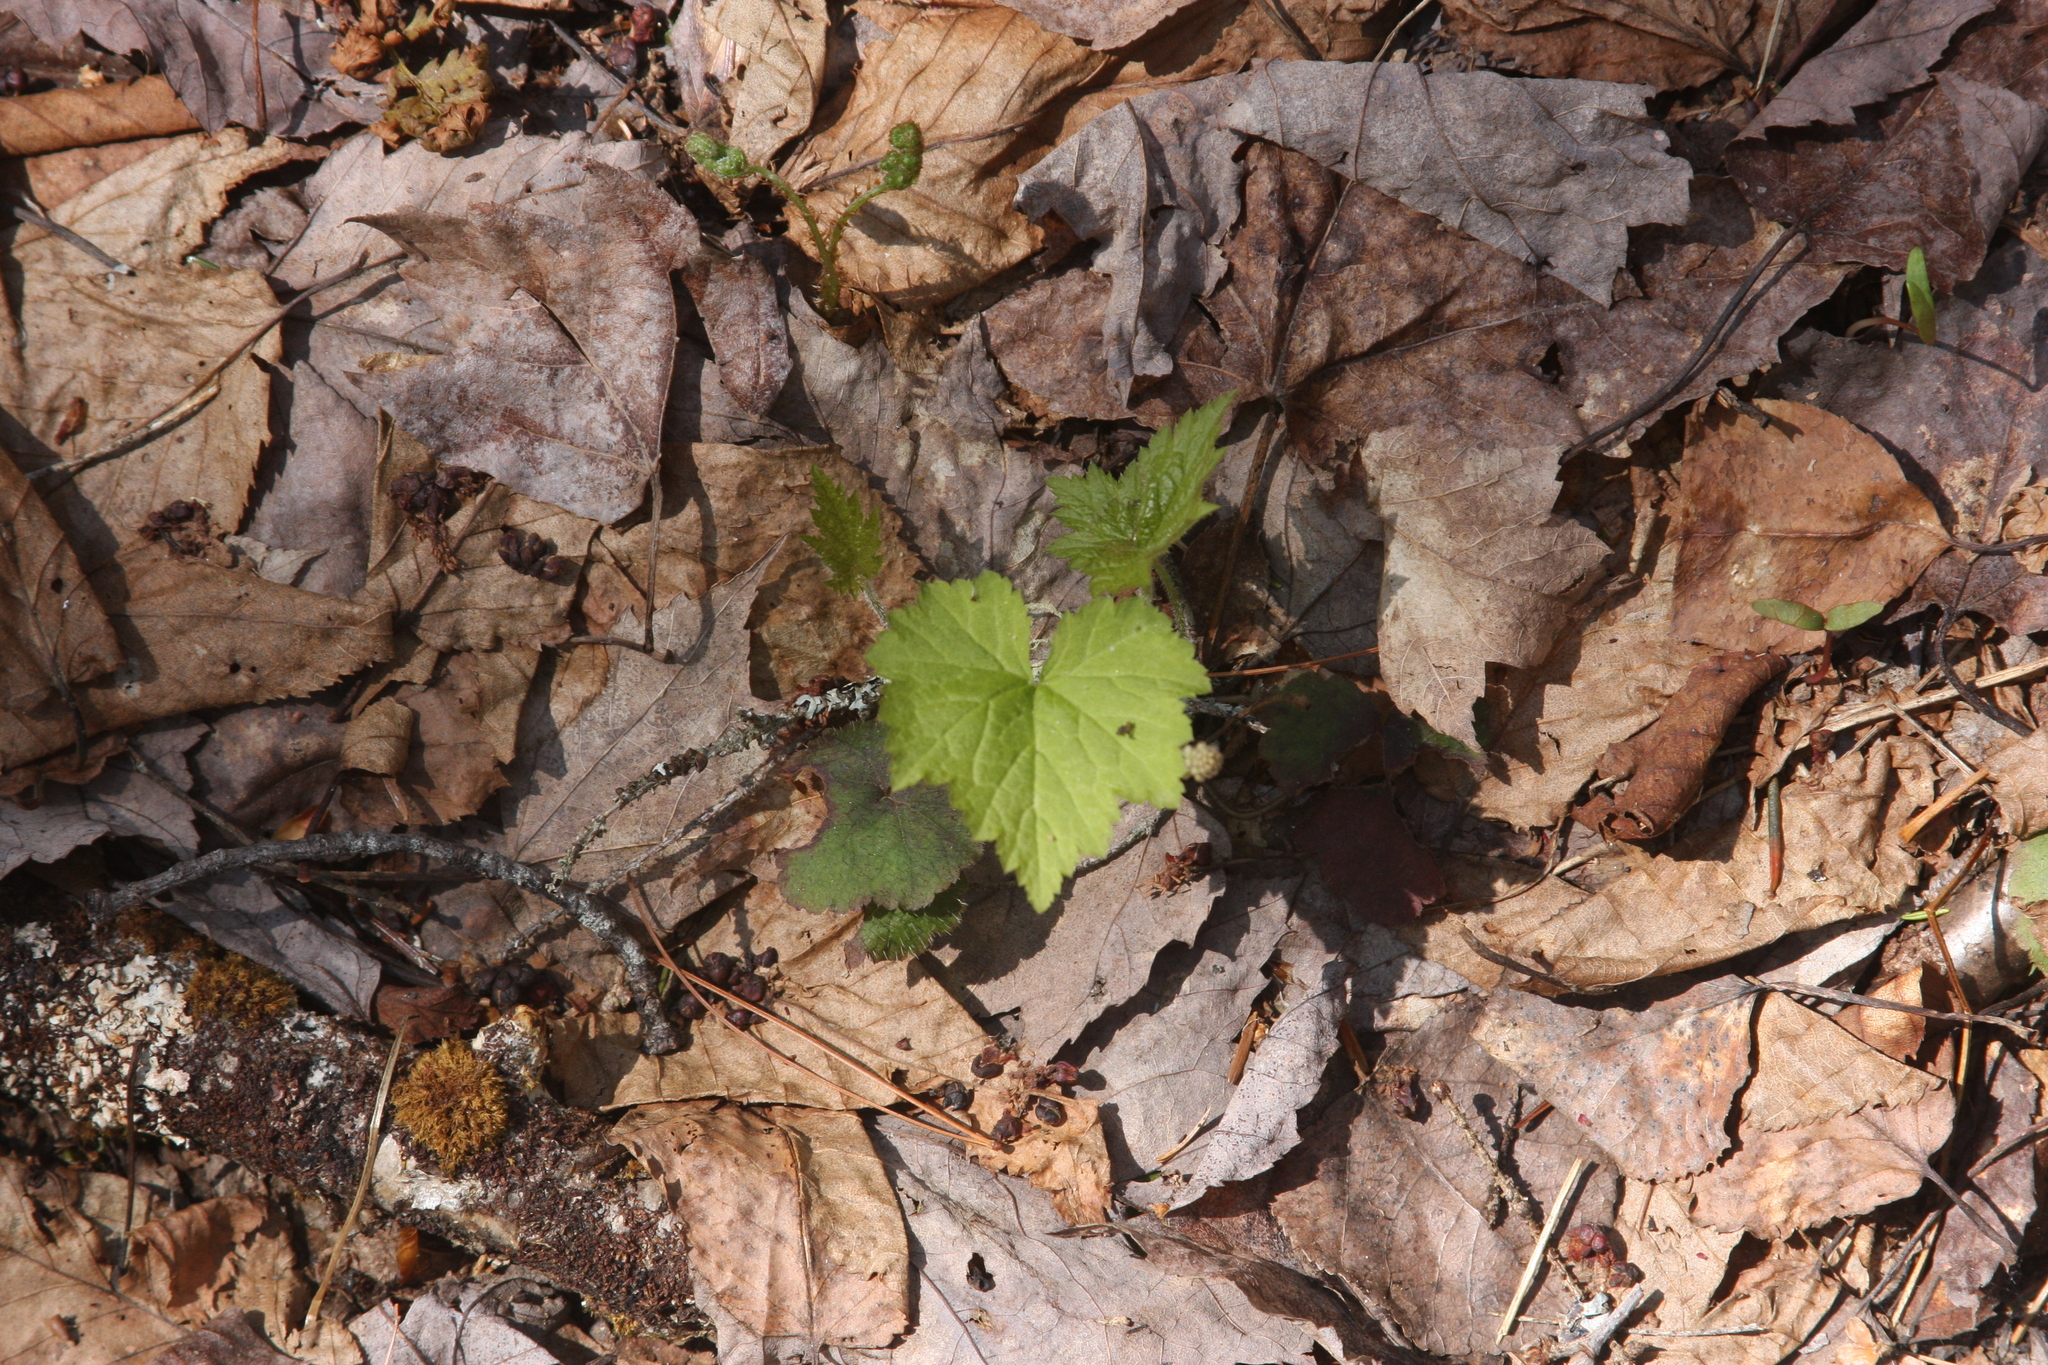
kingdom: Plantae
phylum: Tracheophyta
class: Magnoliopsida
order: Saxifragales
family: Saxifragaceae
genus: Tiarella
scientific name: Tiarella stolonifera
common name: Stoloniferous foamflower
